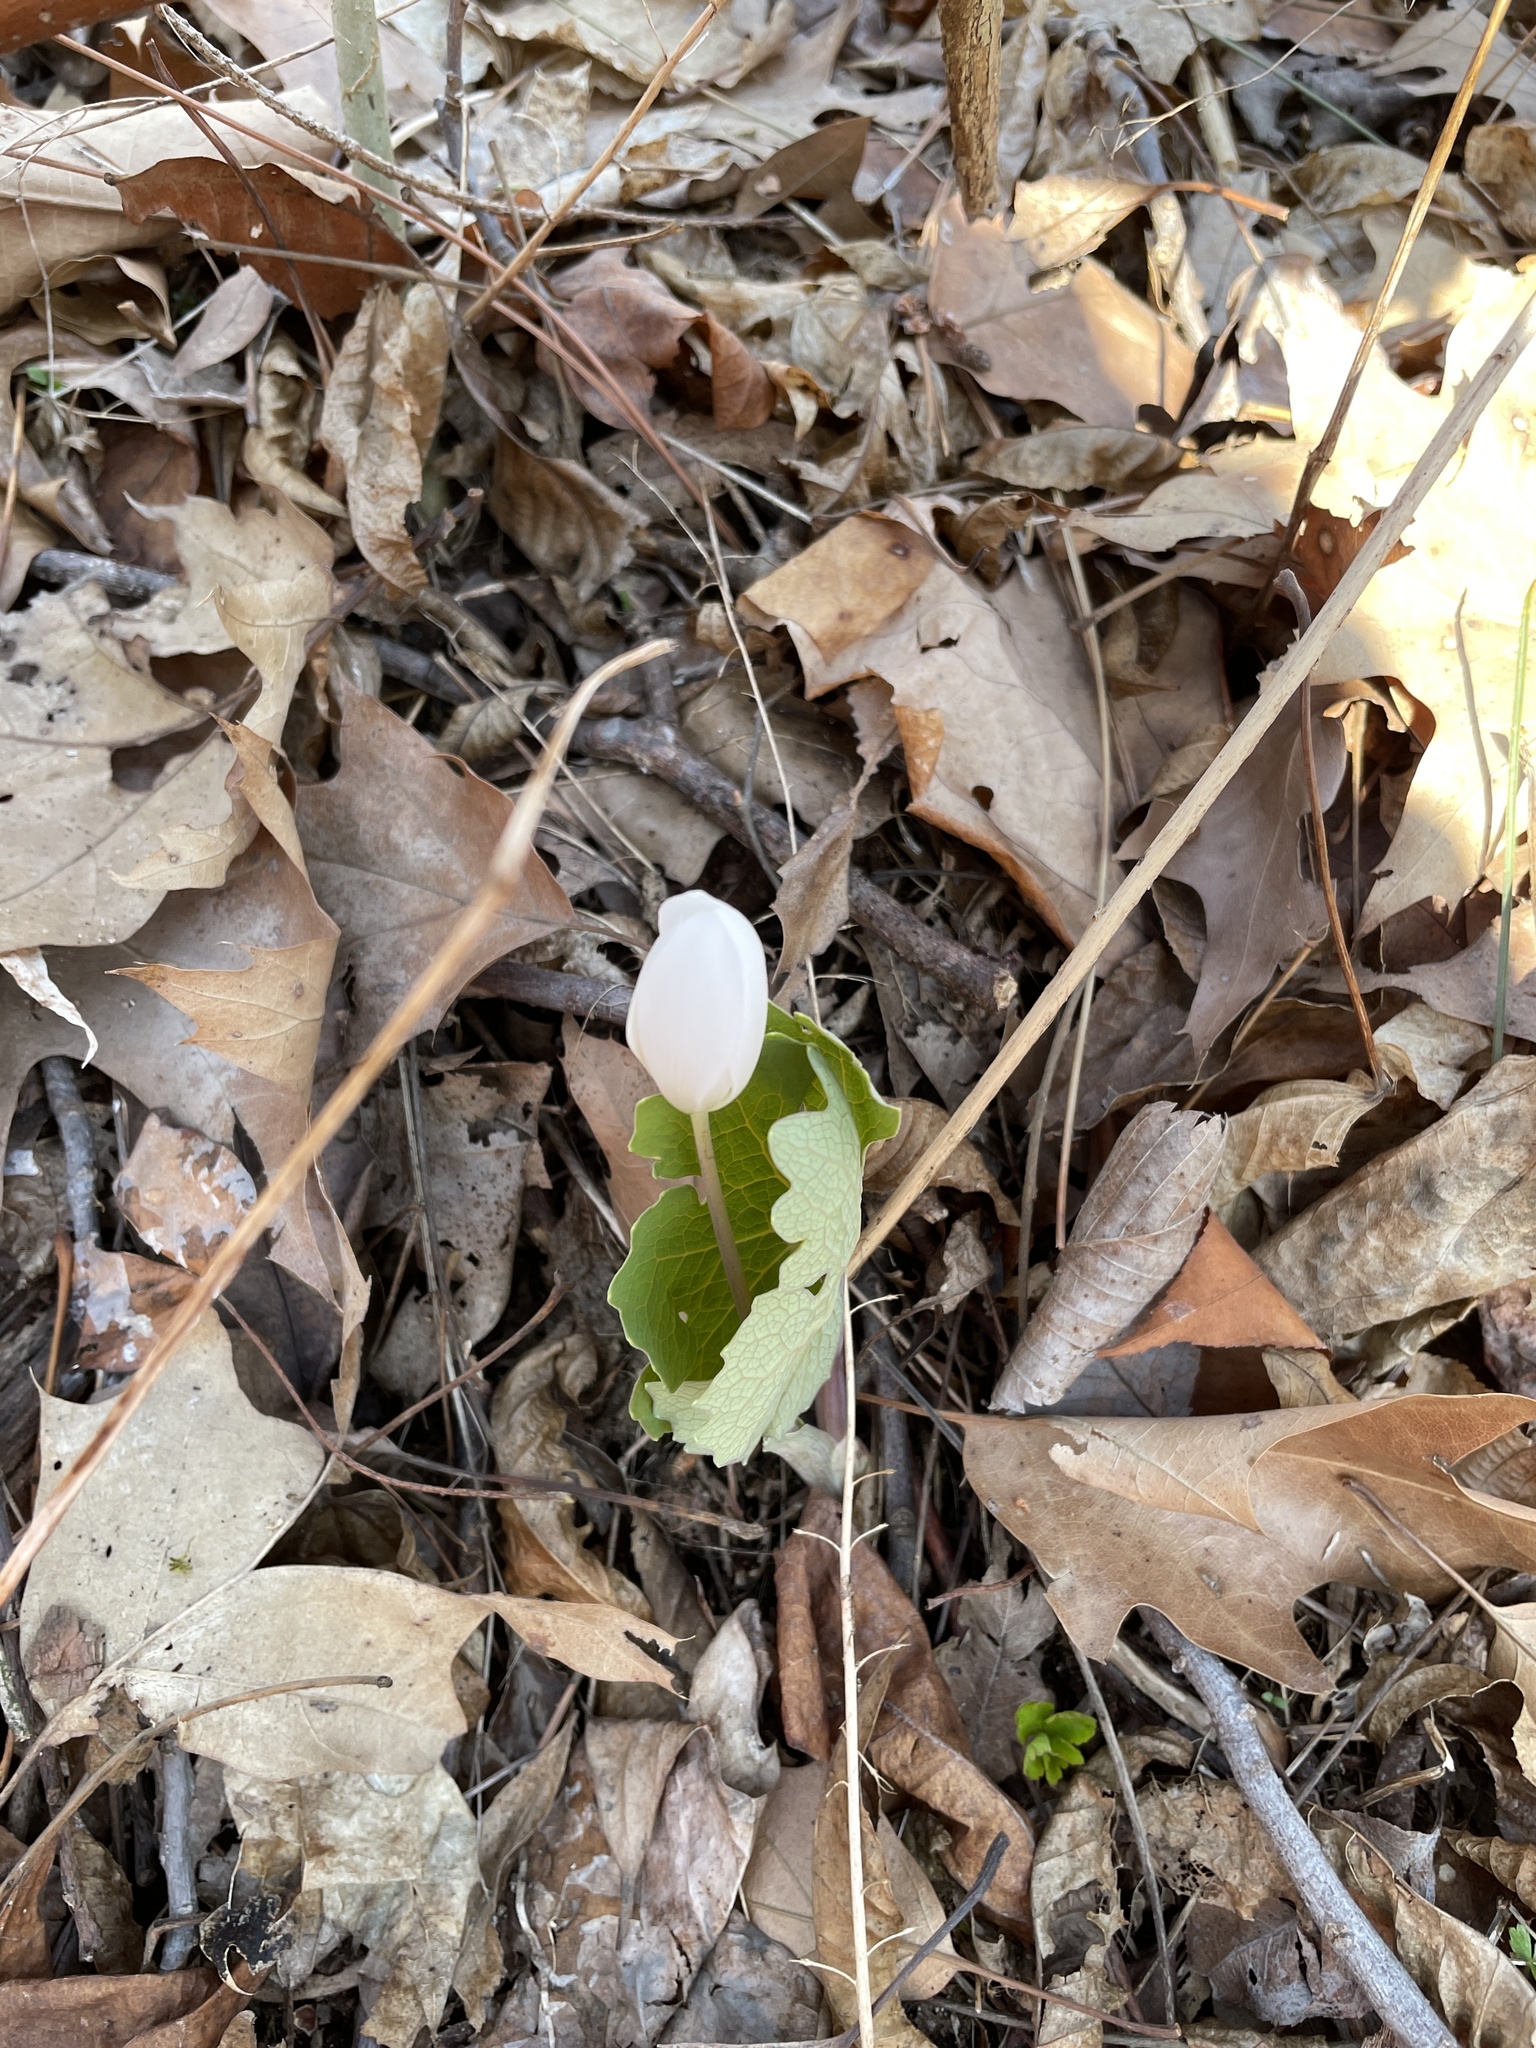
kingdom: Plantae
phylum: Tracheophyta
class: Magnoliopsida
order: Ranunculales
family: Papaveraceae
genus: Sanguinaria
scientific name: Sanguinaria canadensis
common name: Bloodroot
